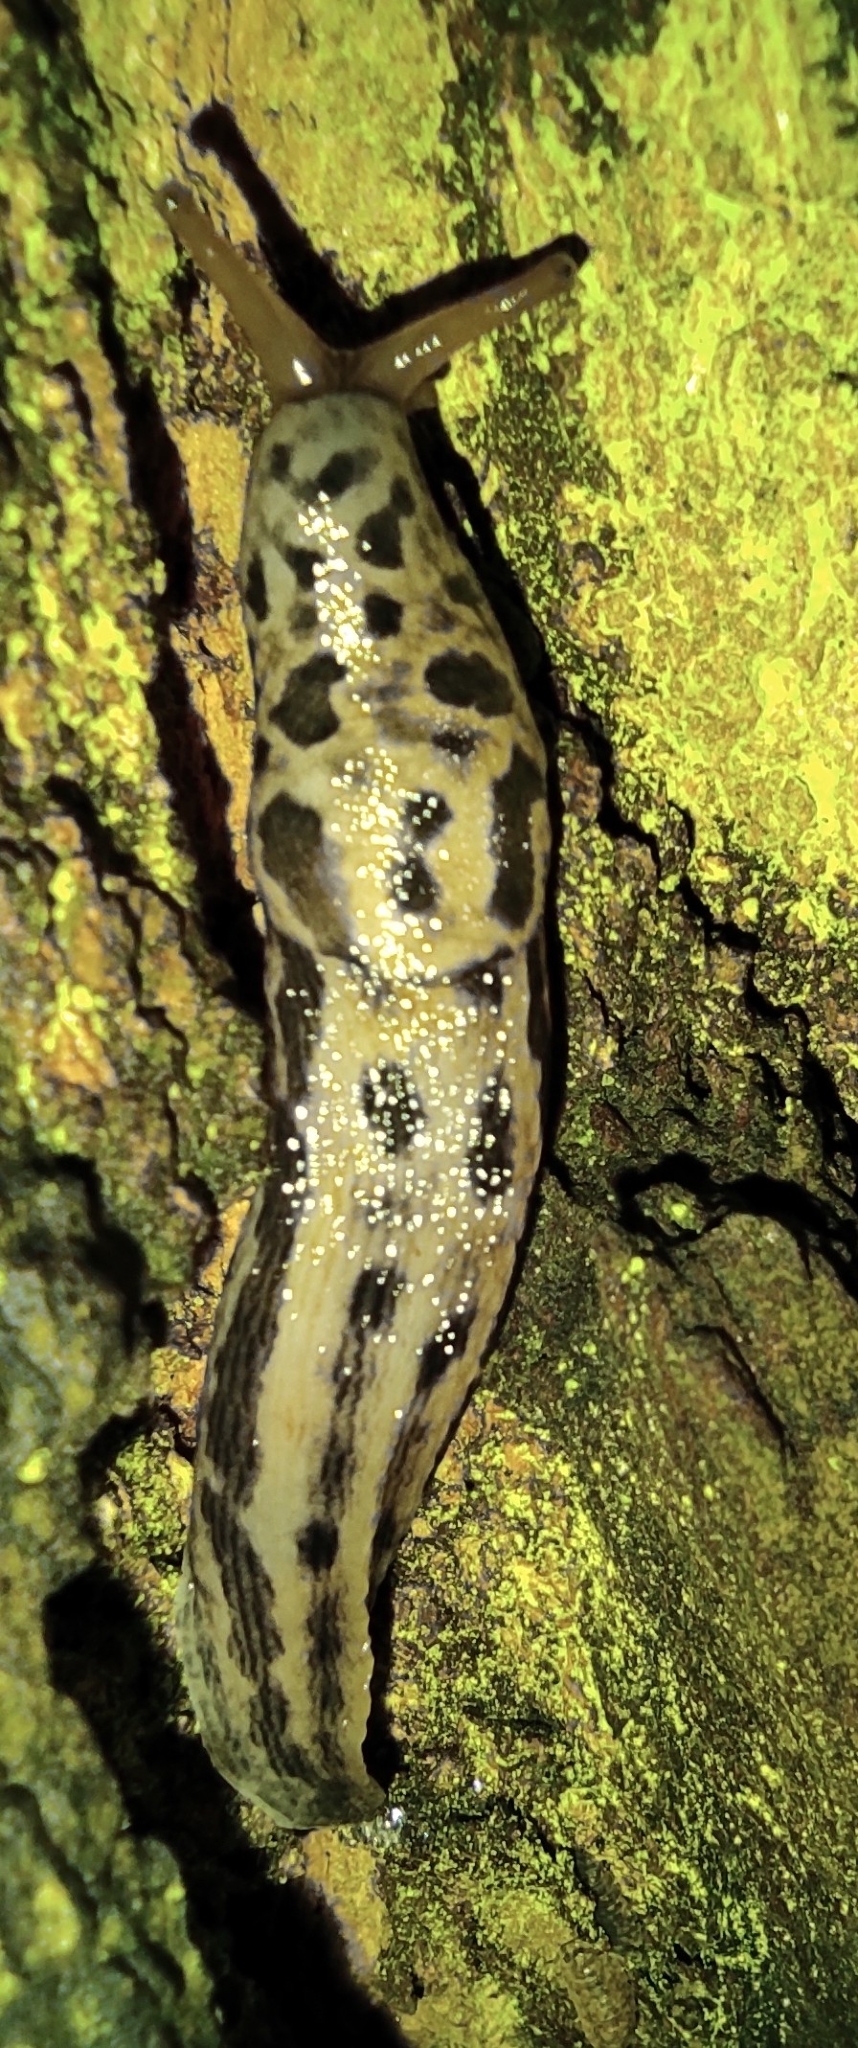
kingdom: Animalia
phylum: Mollusca
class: Gastropoda
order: Stylommatophora
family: Limacidae
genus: Limax
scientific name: Limax maximus
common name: Great grey slug
